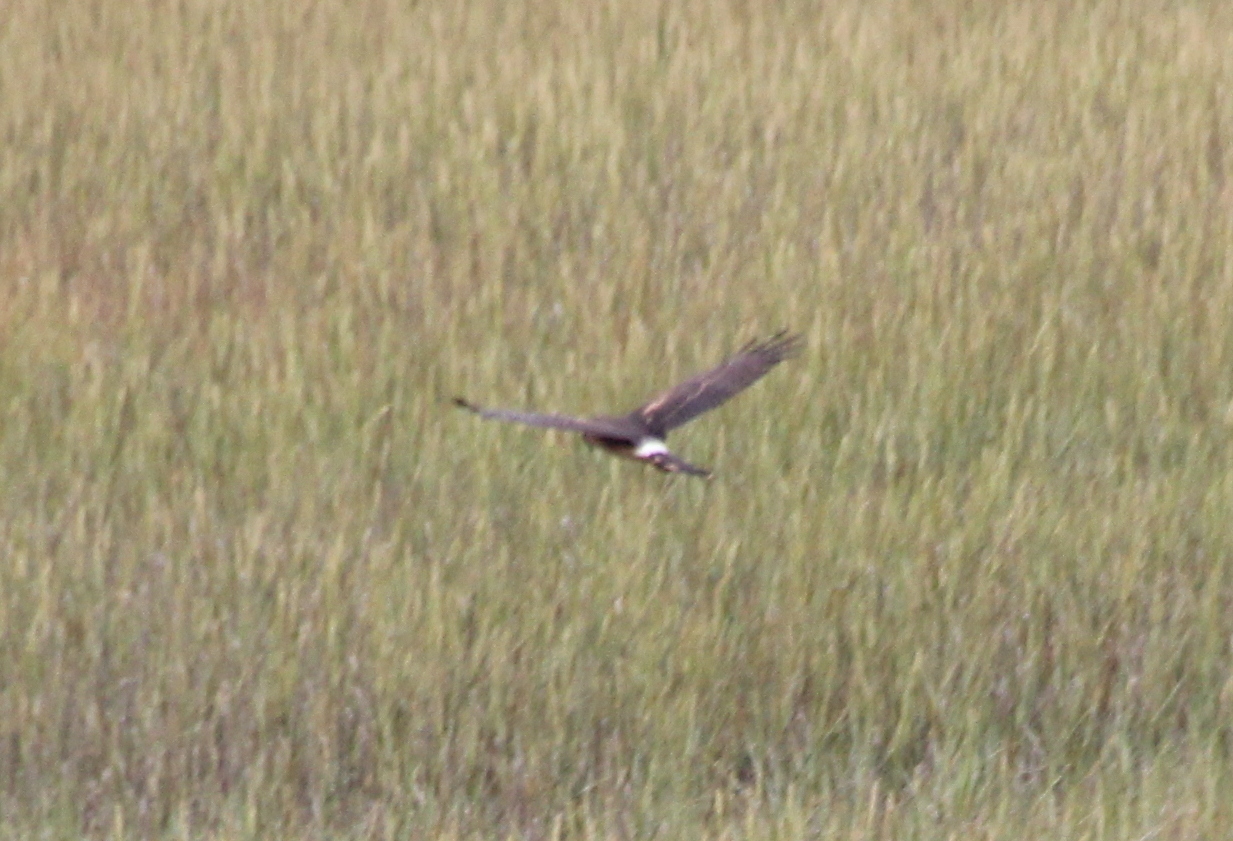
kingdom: Animalia
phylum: Chordata
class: Aves
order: Accipitriformes
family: Accipitridae
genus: Circus
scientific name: Circus cyaneus
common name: Hen harrier
